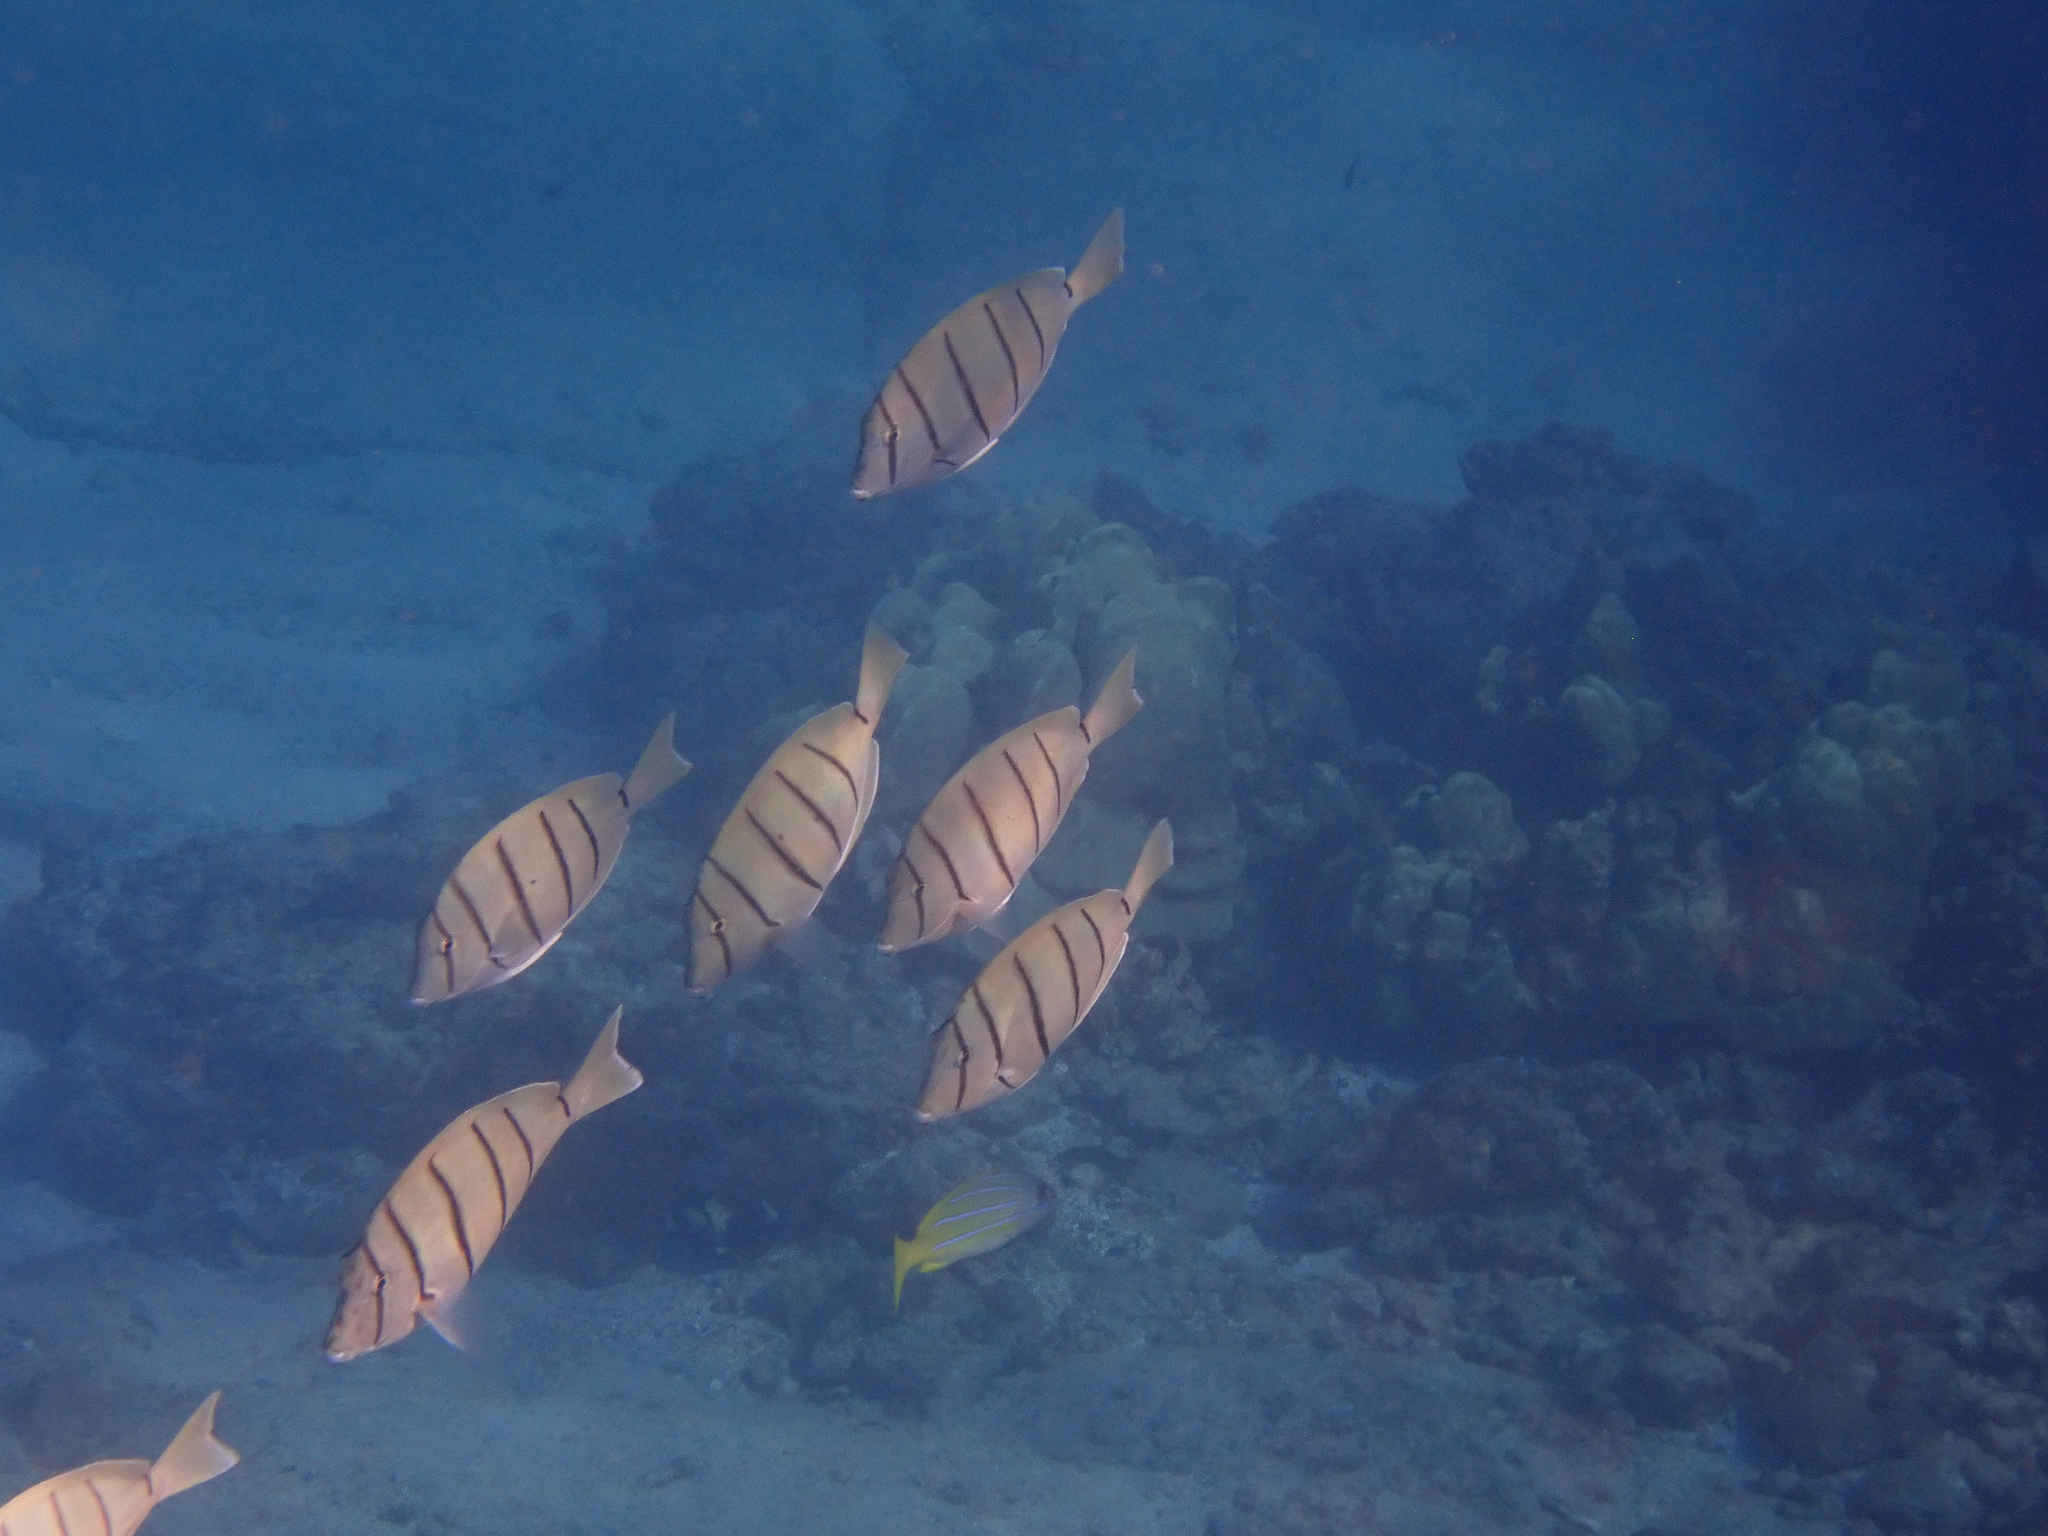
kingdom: Animalia
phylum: Chordata
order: Perciformes
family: Acanthuridae
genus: Acanthurus
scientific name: Acanthurus triostegus
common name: Convict surgeonfish
